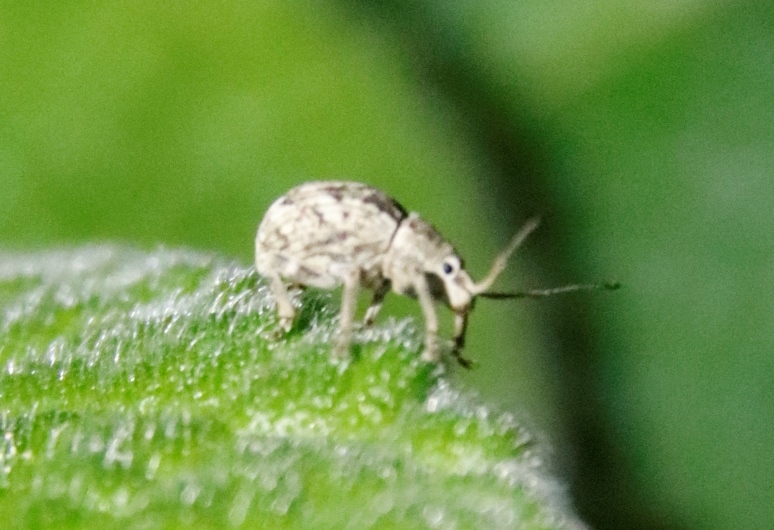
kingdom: Animalia
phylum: Arthropoda
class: Insecta
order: Coleoptera
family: Curculionidae
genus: Ellimenistes
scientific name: Ellimenistes laesicollis
